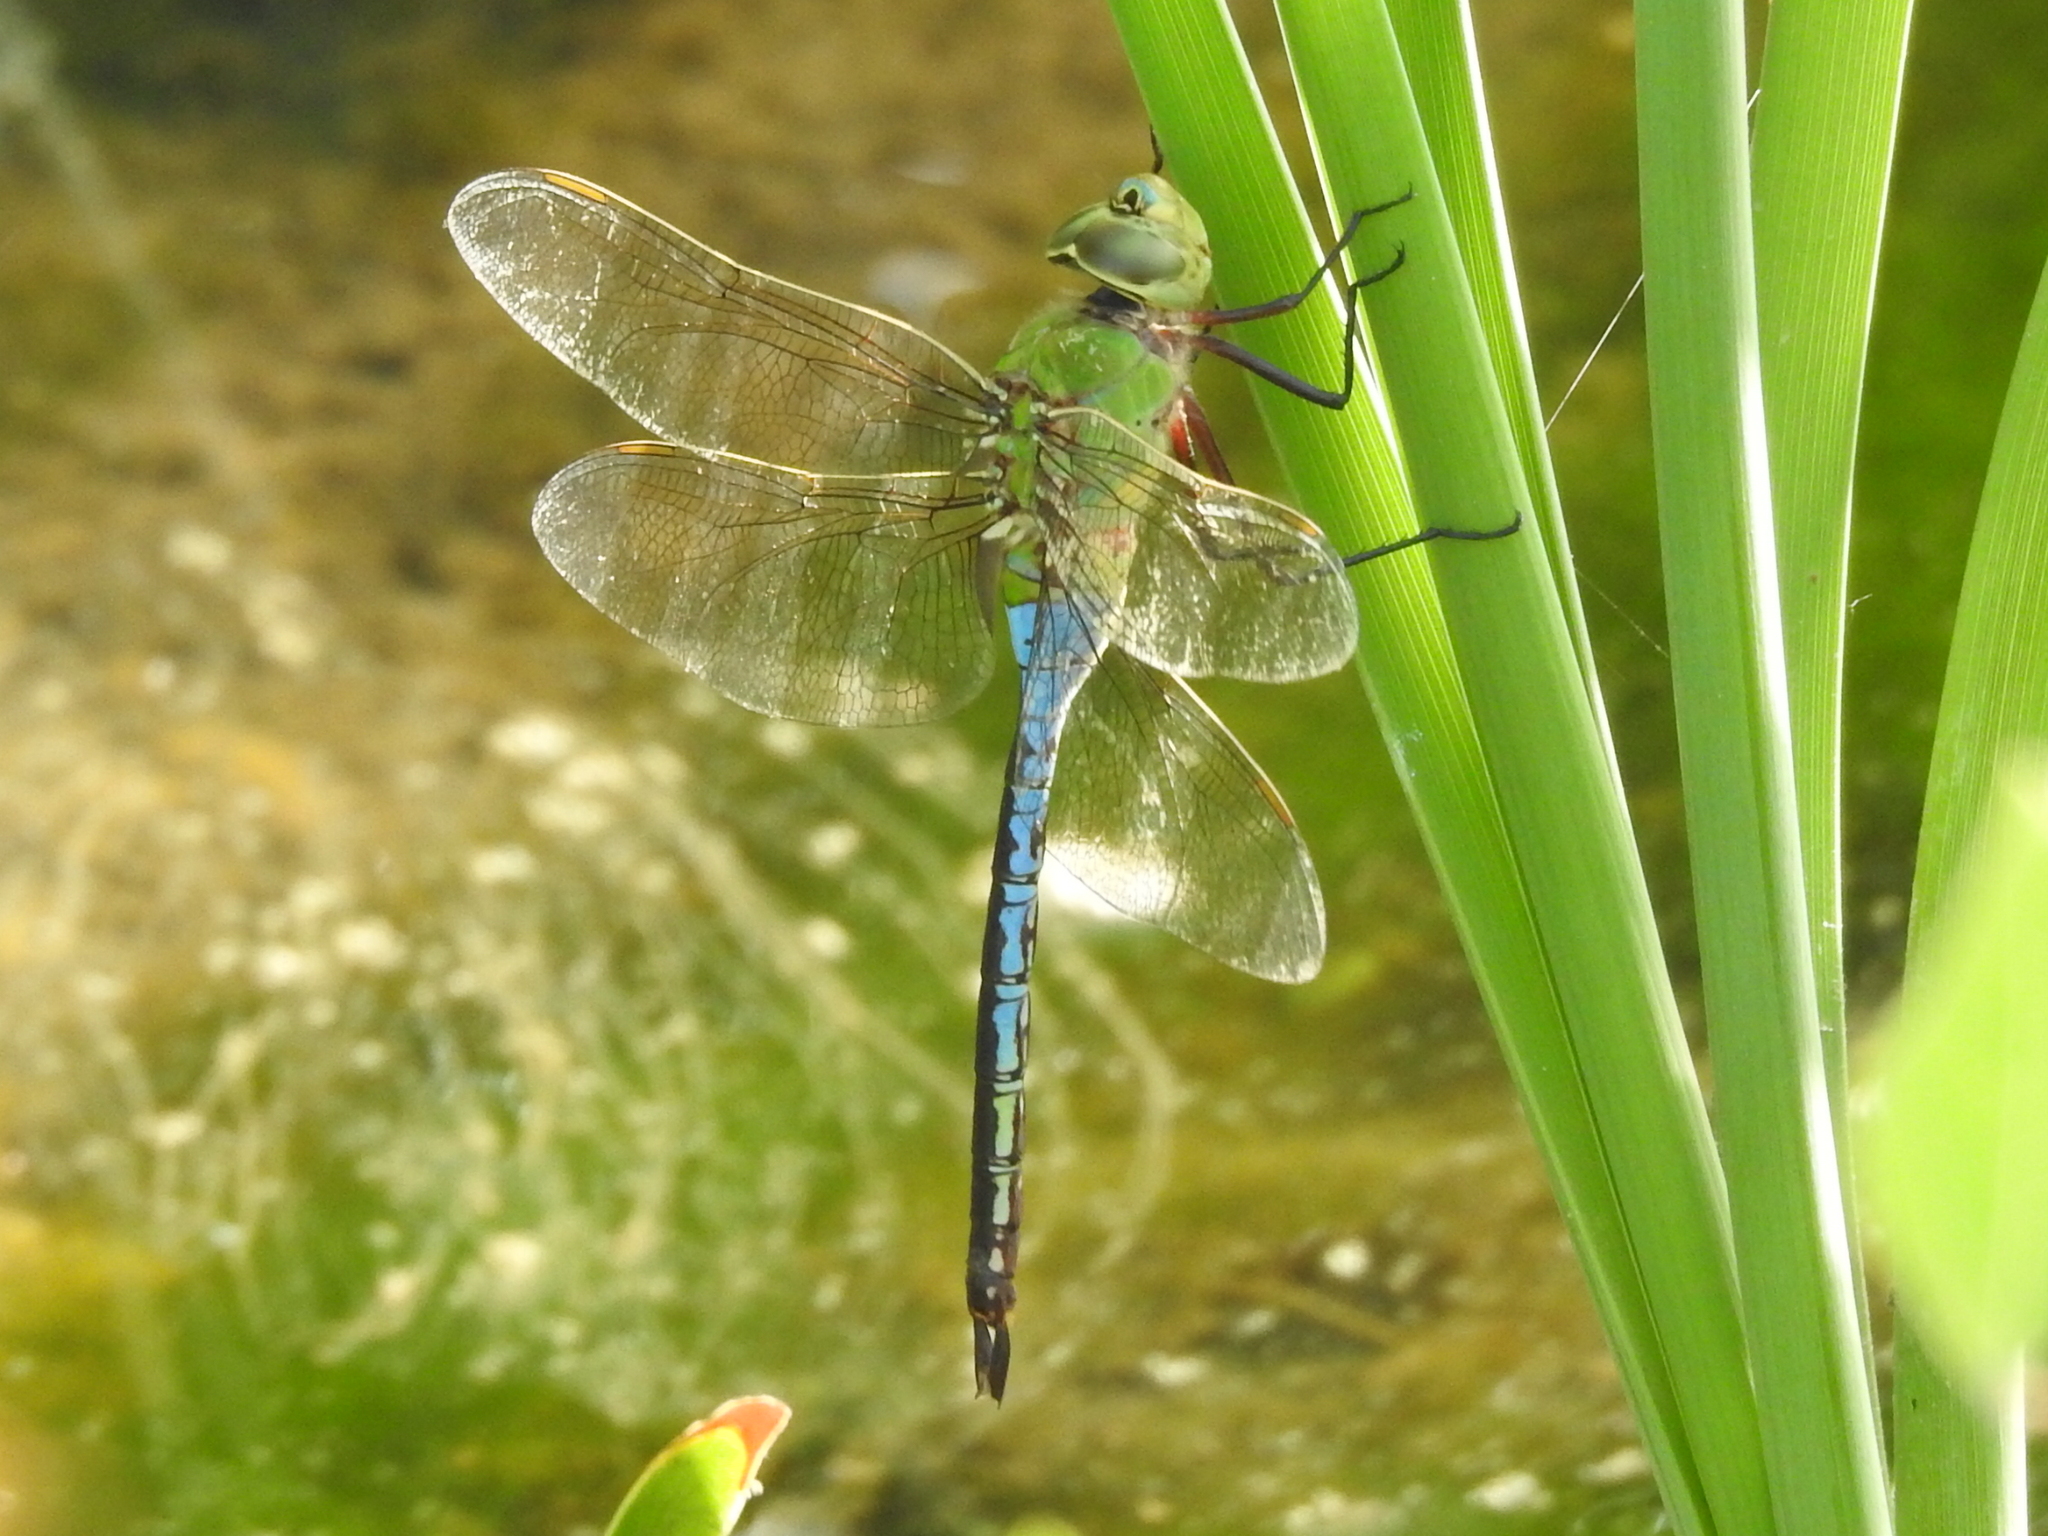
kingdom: Animalia
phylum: Arthropoda
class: Insecta
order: Odonata
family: Aeshnidae
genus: Anax
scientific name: Anax junius
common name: Common green darner
